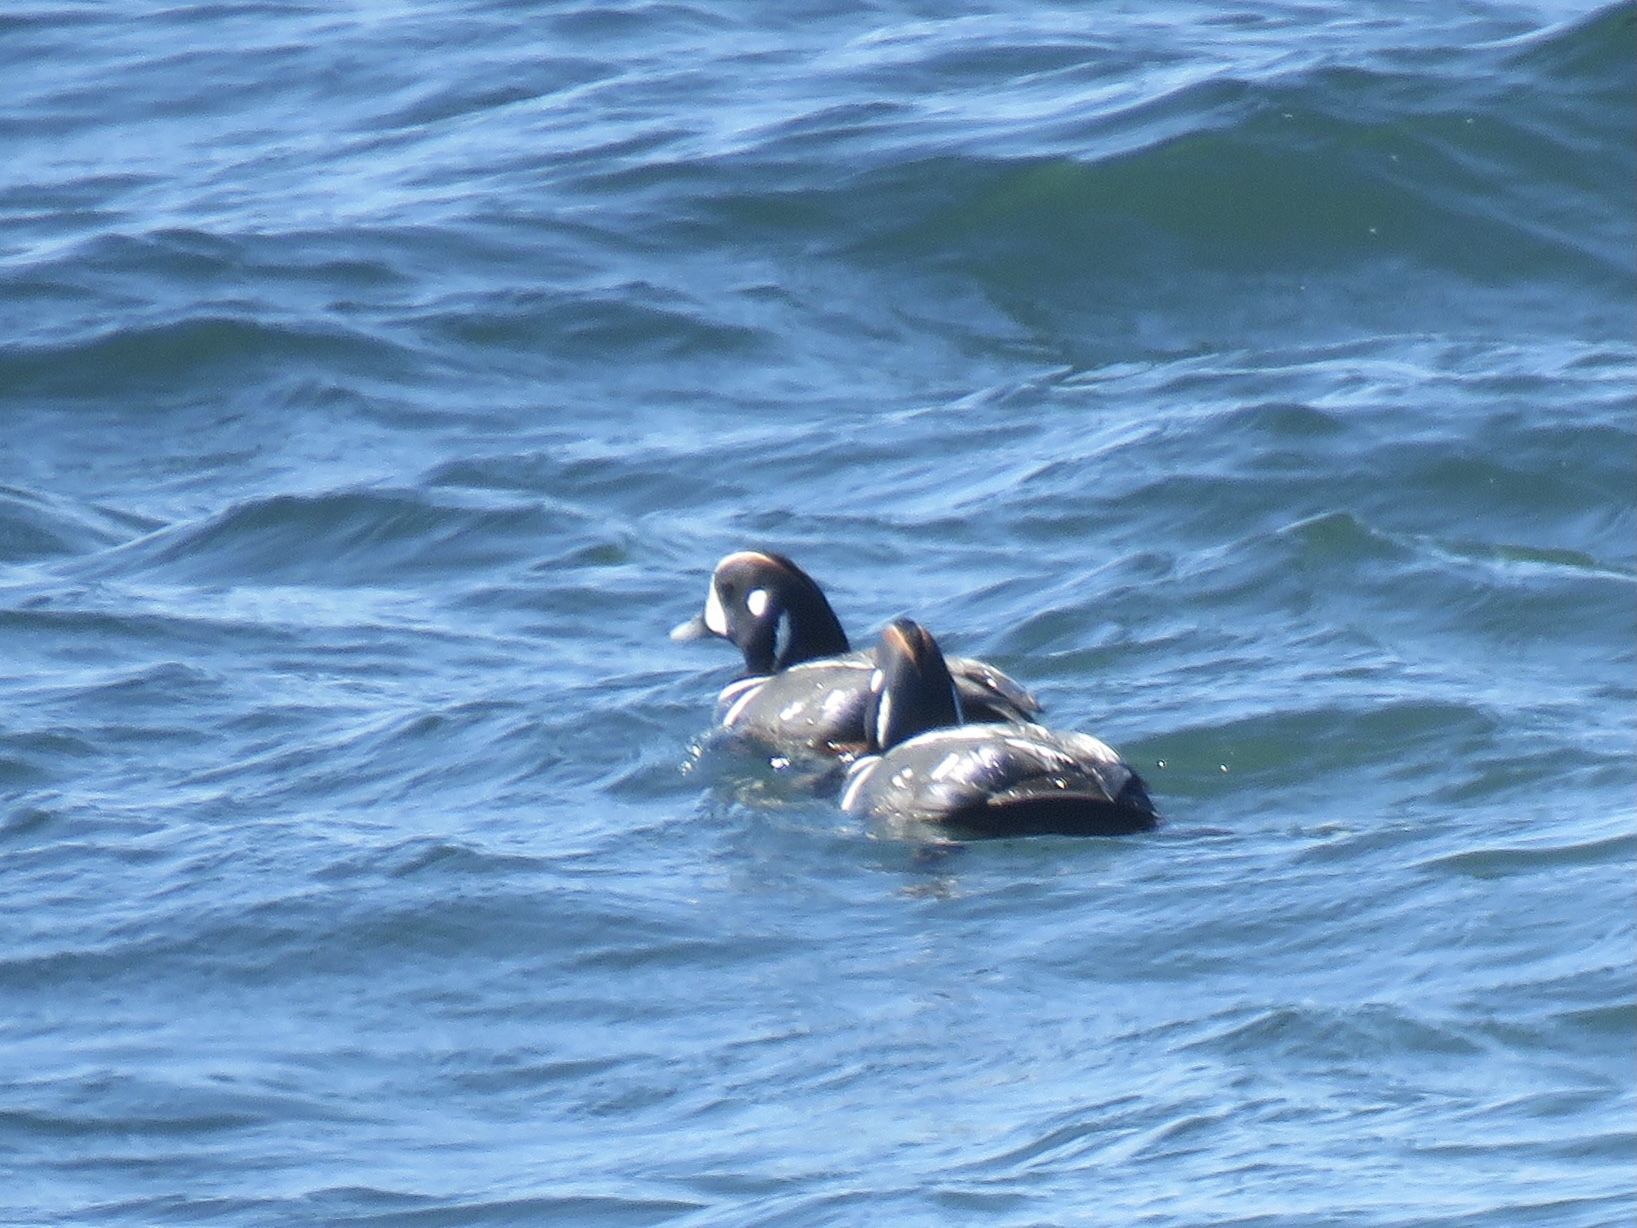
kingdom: Animalia
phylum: Chordata
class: Aves
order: Anseriformes
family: Anatidae
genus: Histrionicus
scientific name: Histrionicus histrionicus
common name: Harlequin duck
